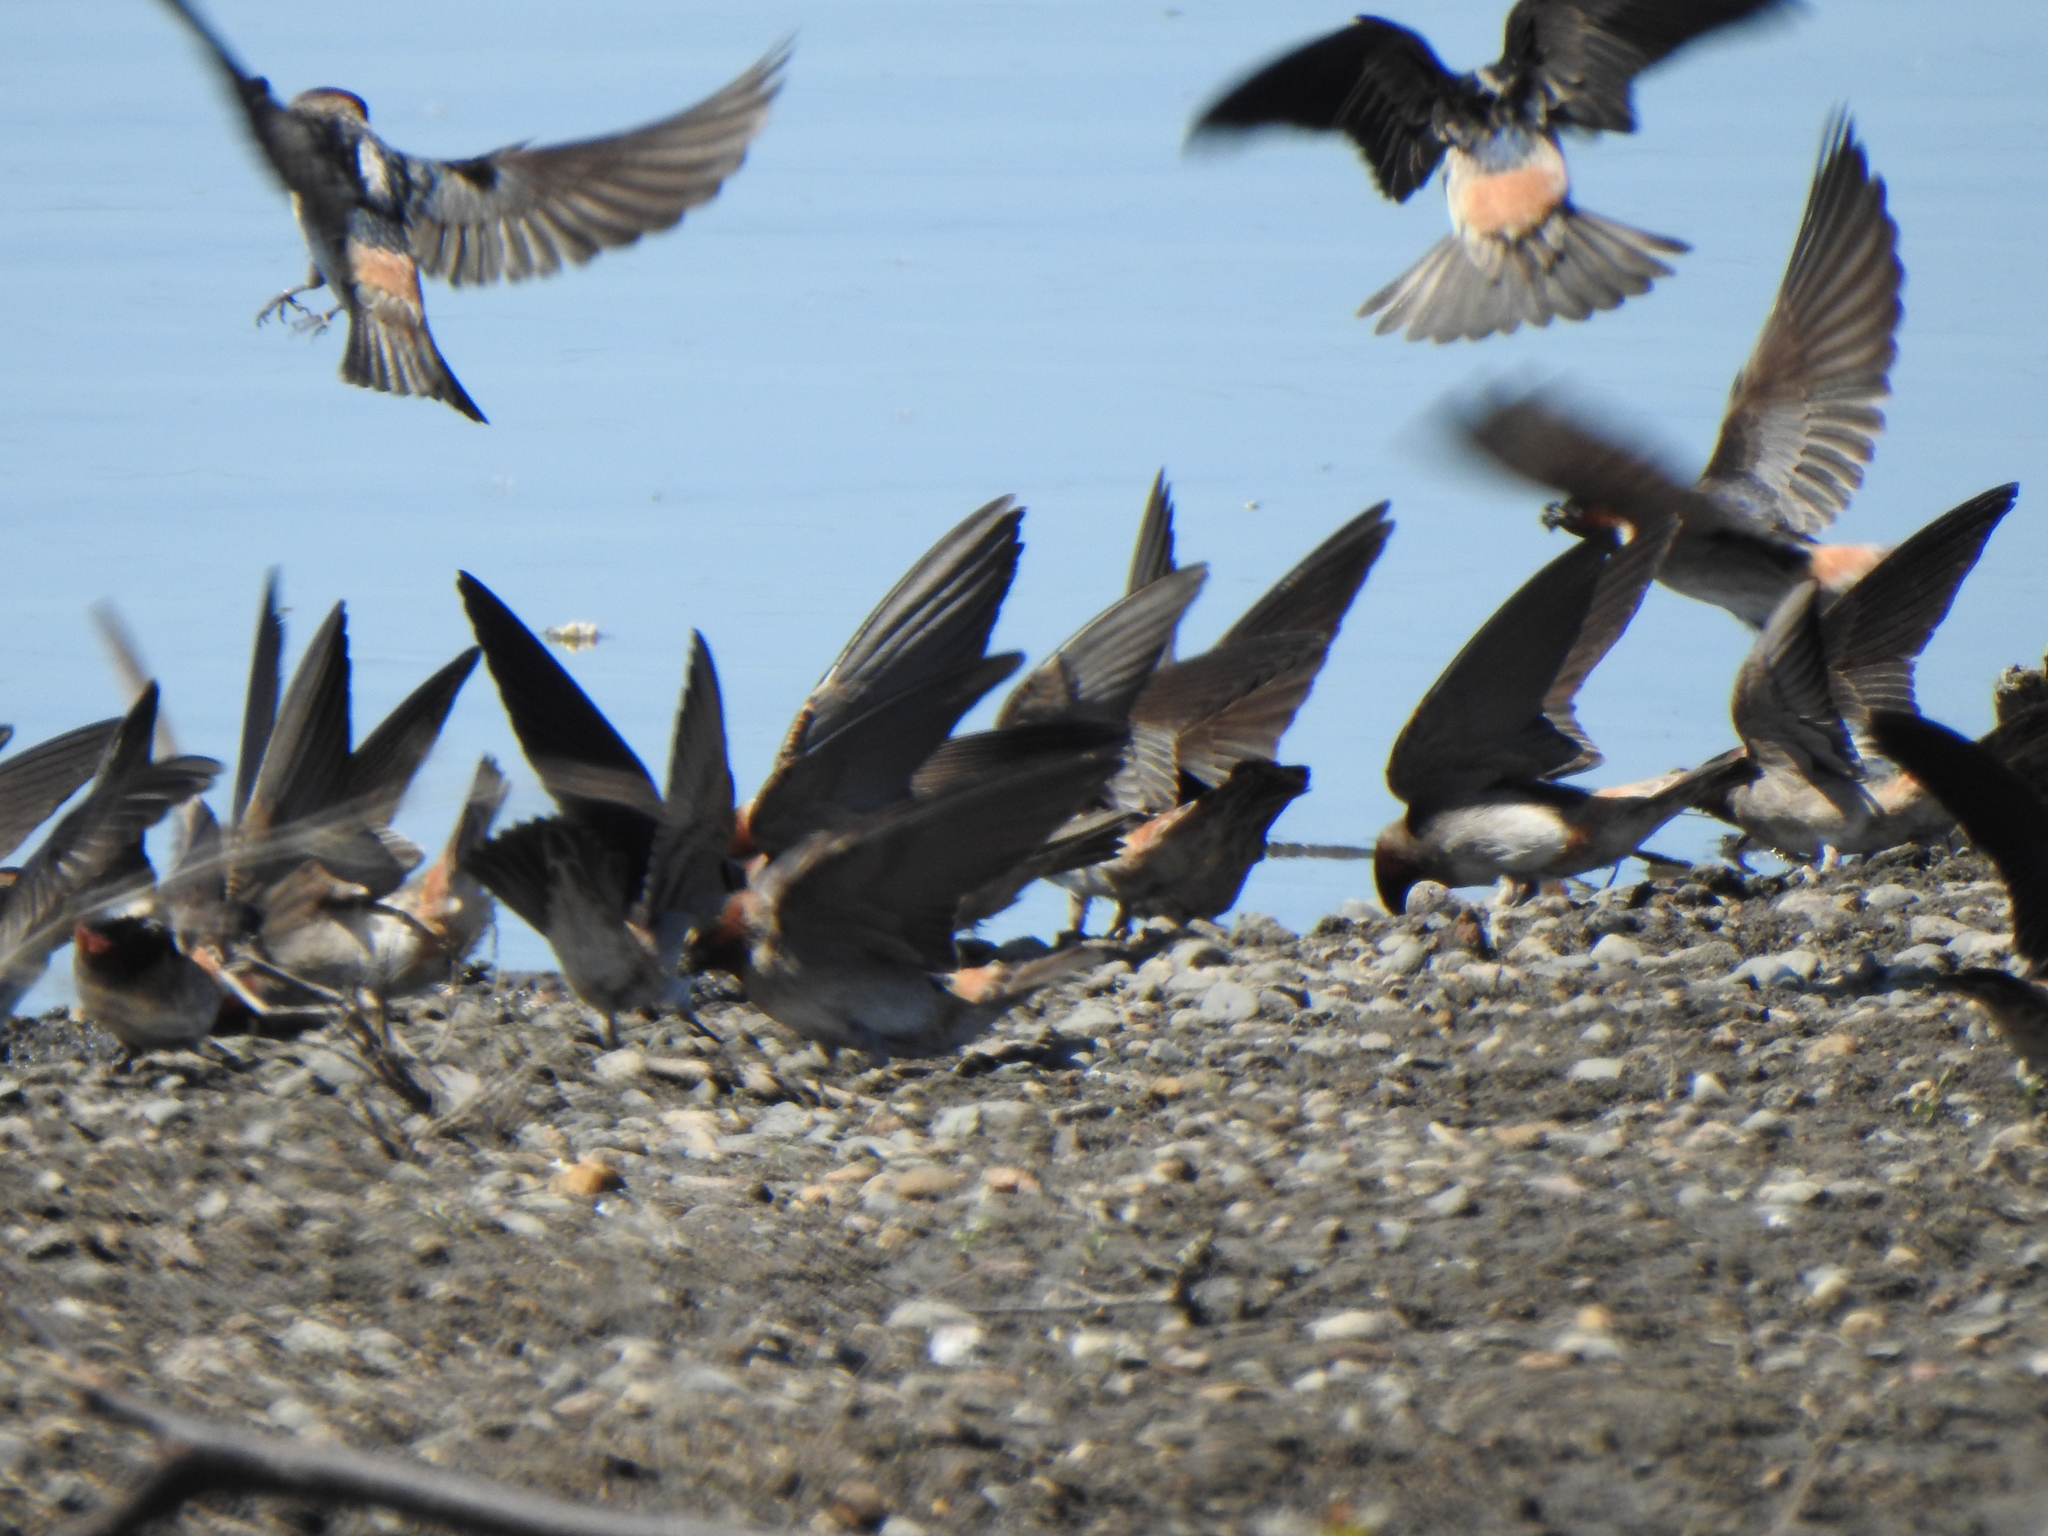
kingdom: Animalia
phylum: Chordata
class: Aves
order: Passeriformes
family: Hirundinidae
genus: Petrochelidon
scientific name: Petrochelidon pyrrhonota
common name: American cliff swallow
